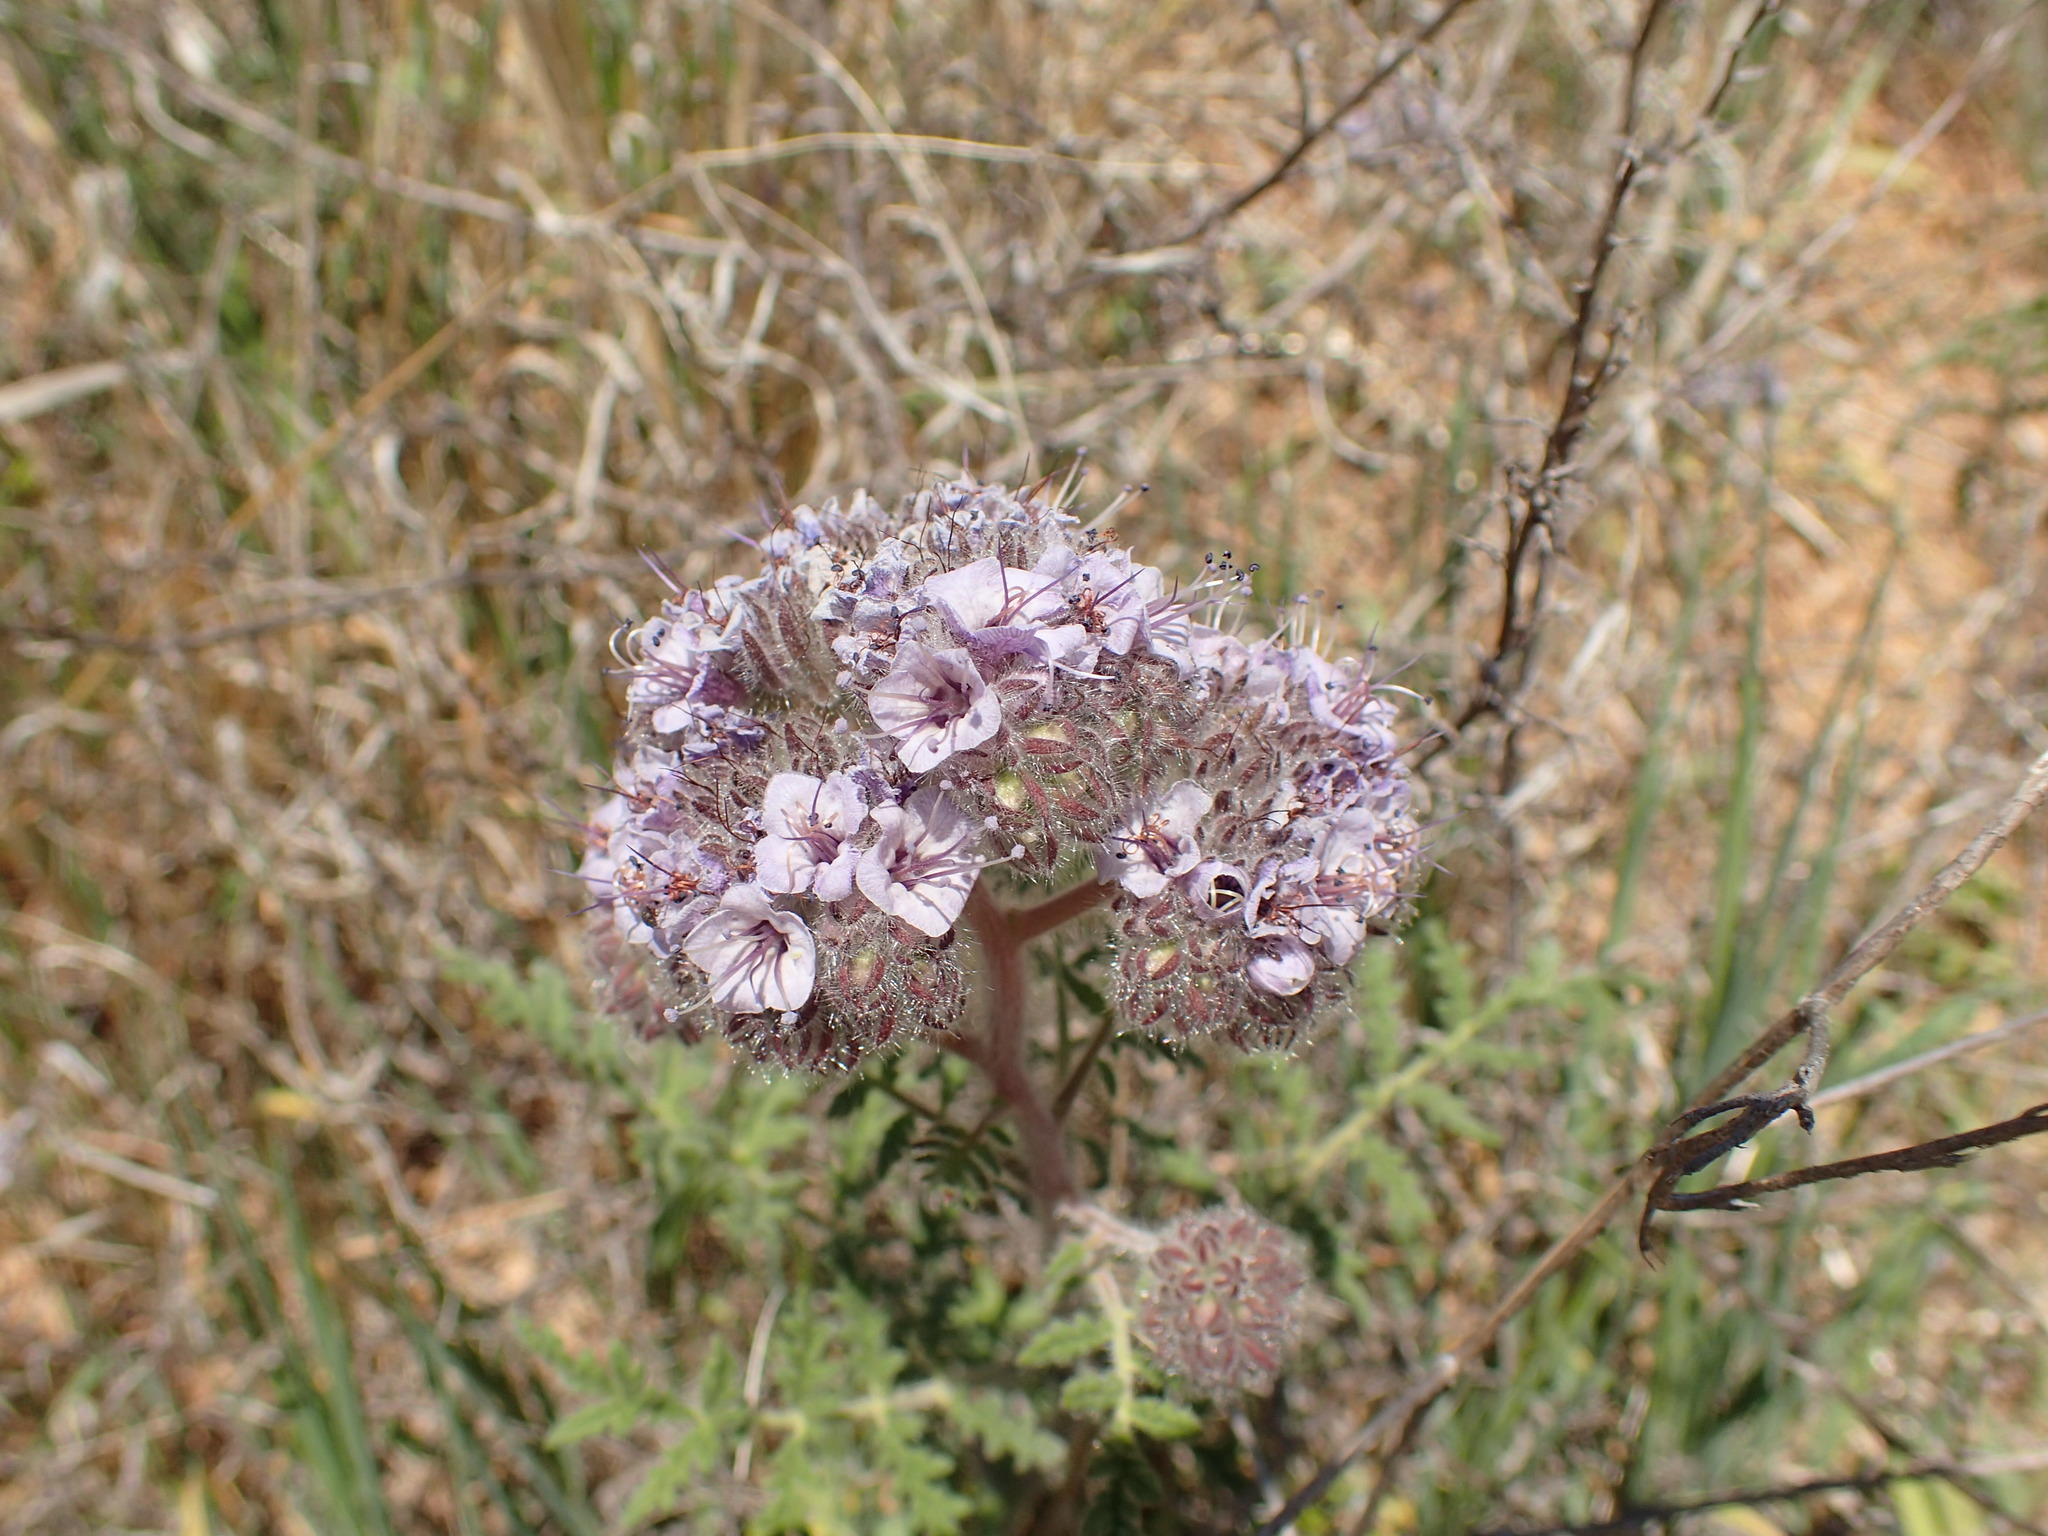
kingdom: Plantae
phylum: Tracheophyta
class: Magnoliopsida
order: Boraginales
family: Hydrophyllaceae
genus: Phacelia
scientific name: Phacelia hubbyi
